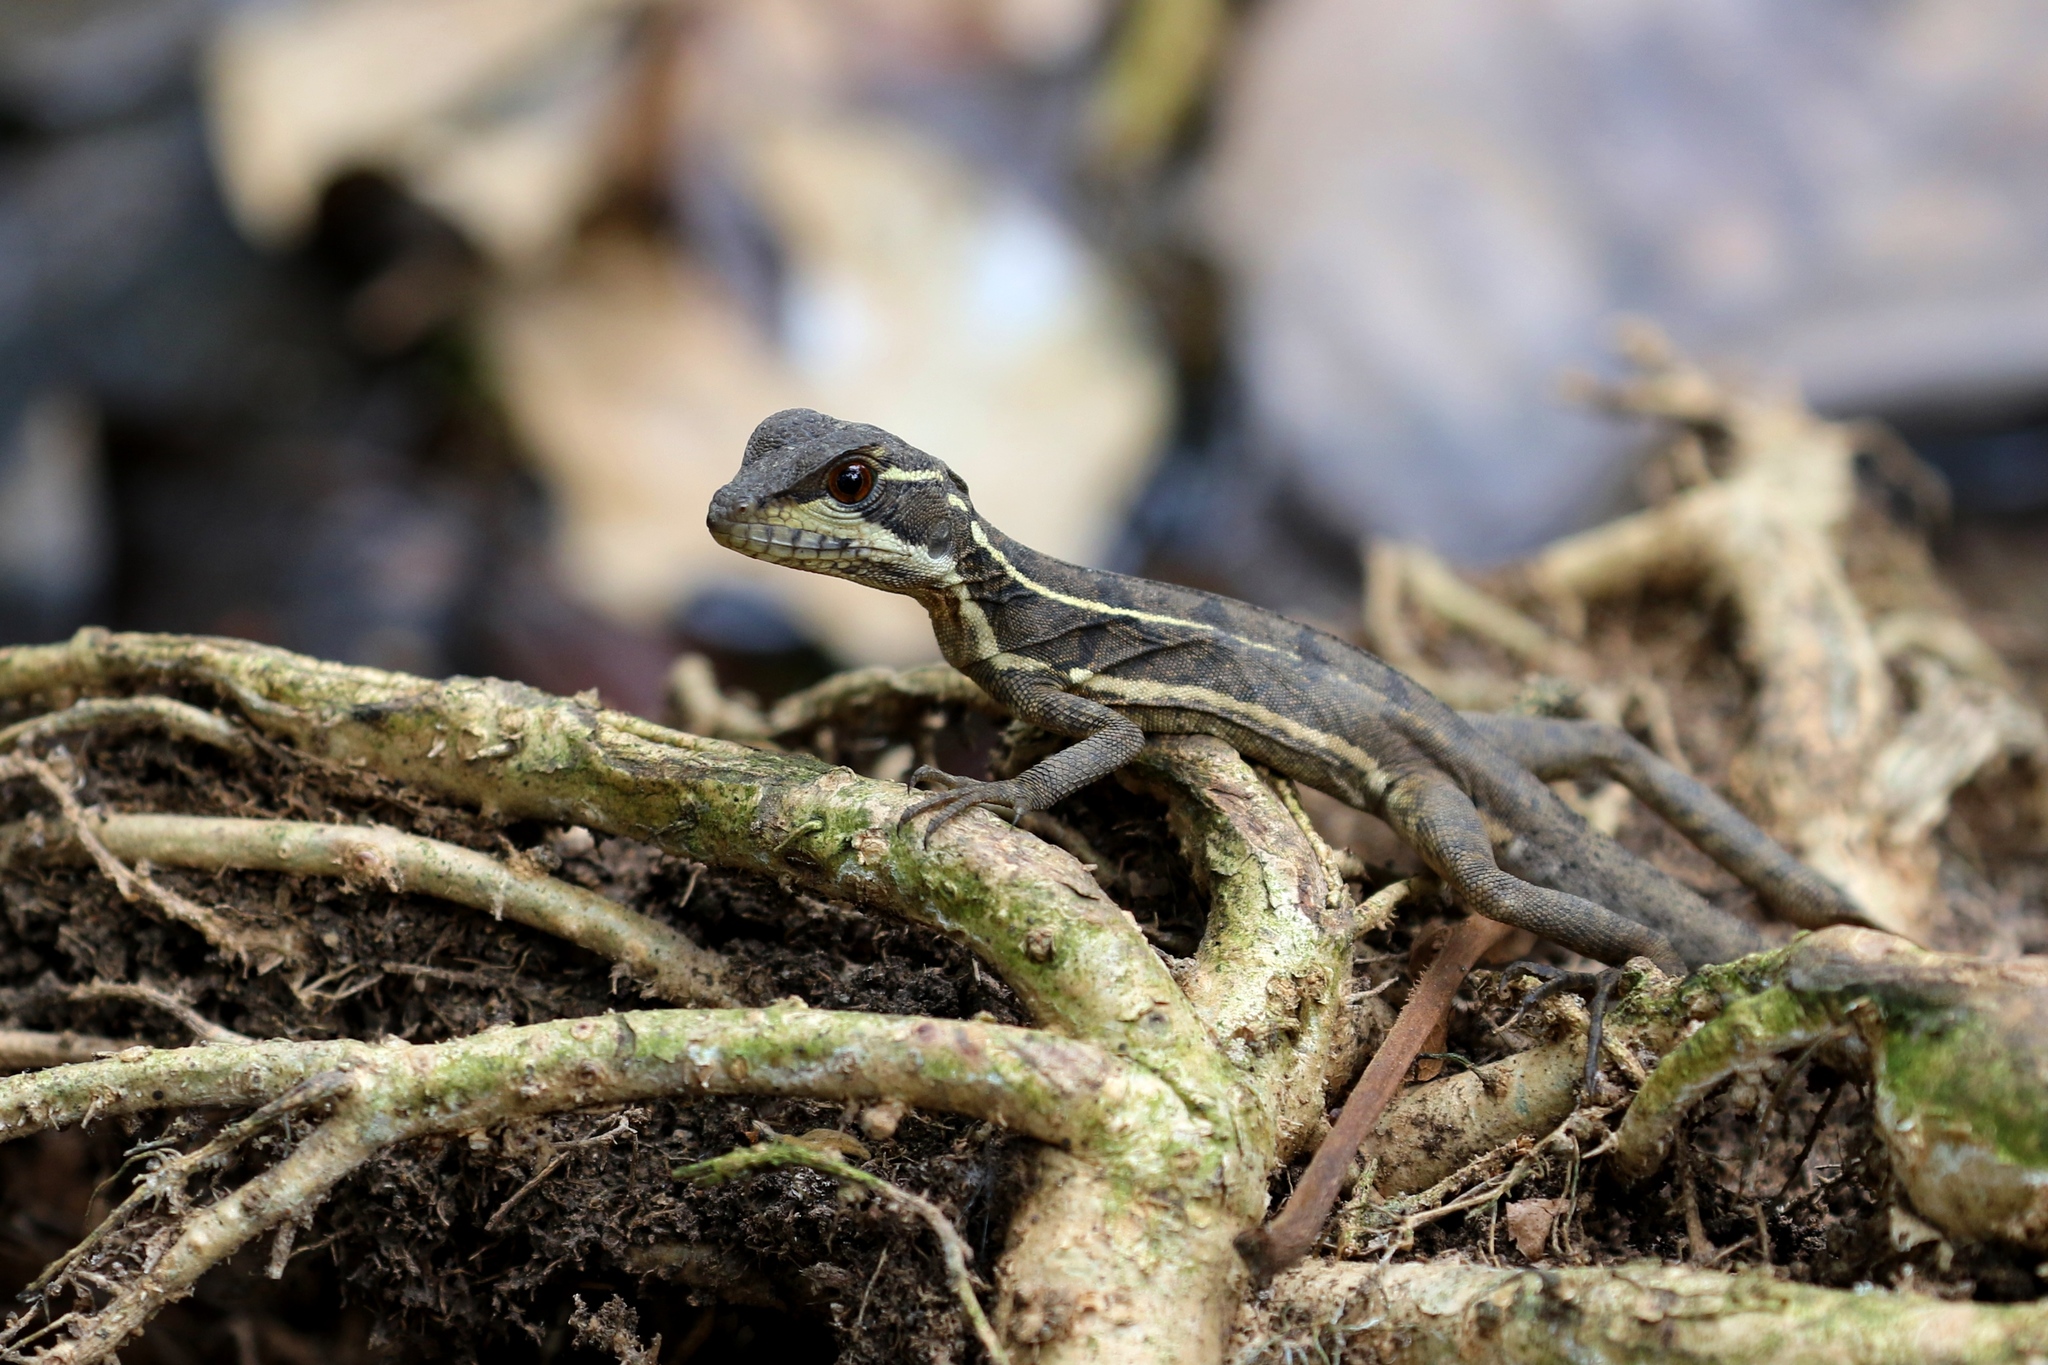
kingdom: Animalia
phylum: Chordata
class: Squamata
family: Corytophanidae
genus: Basiliscus
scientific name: Basiliscus basiliscus
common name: Common basilisk
